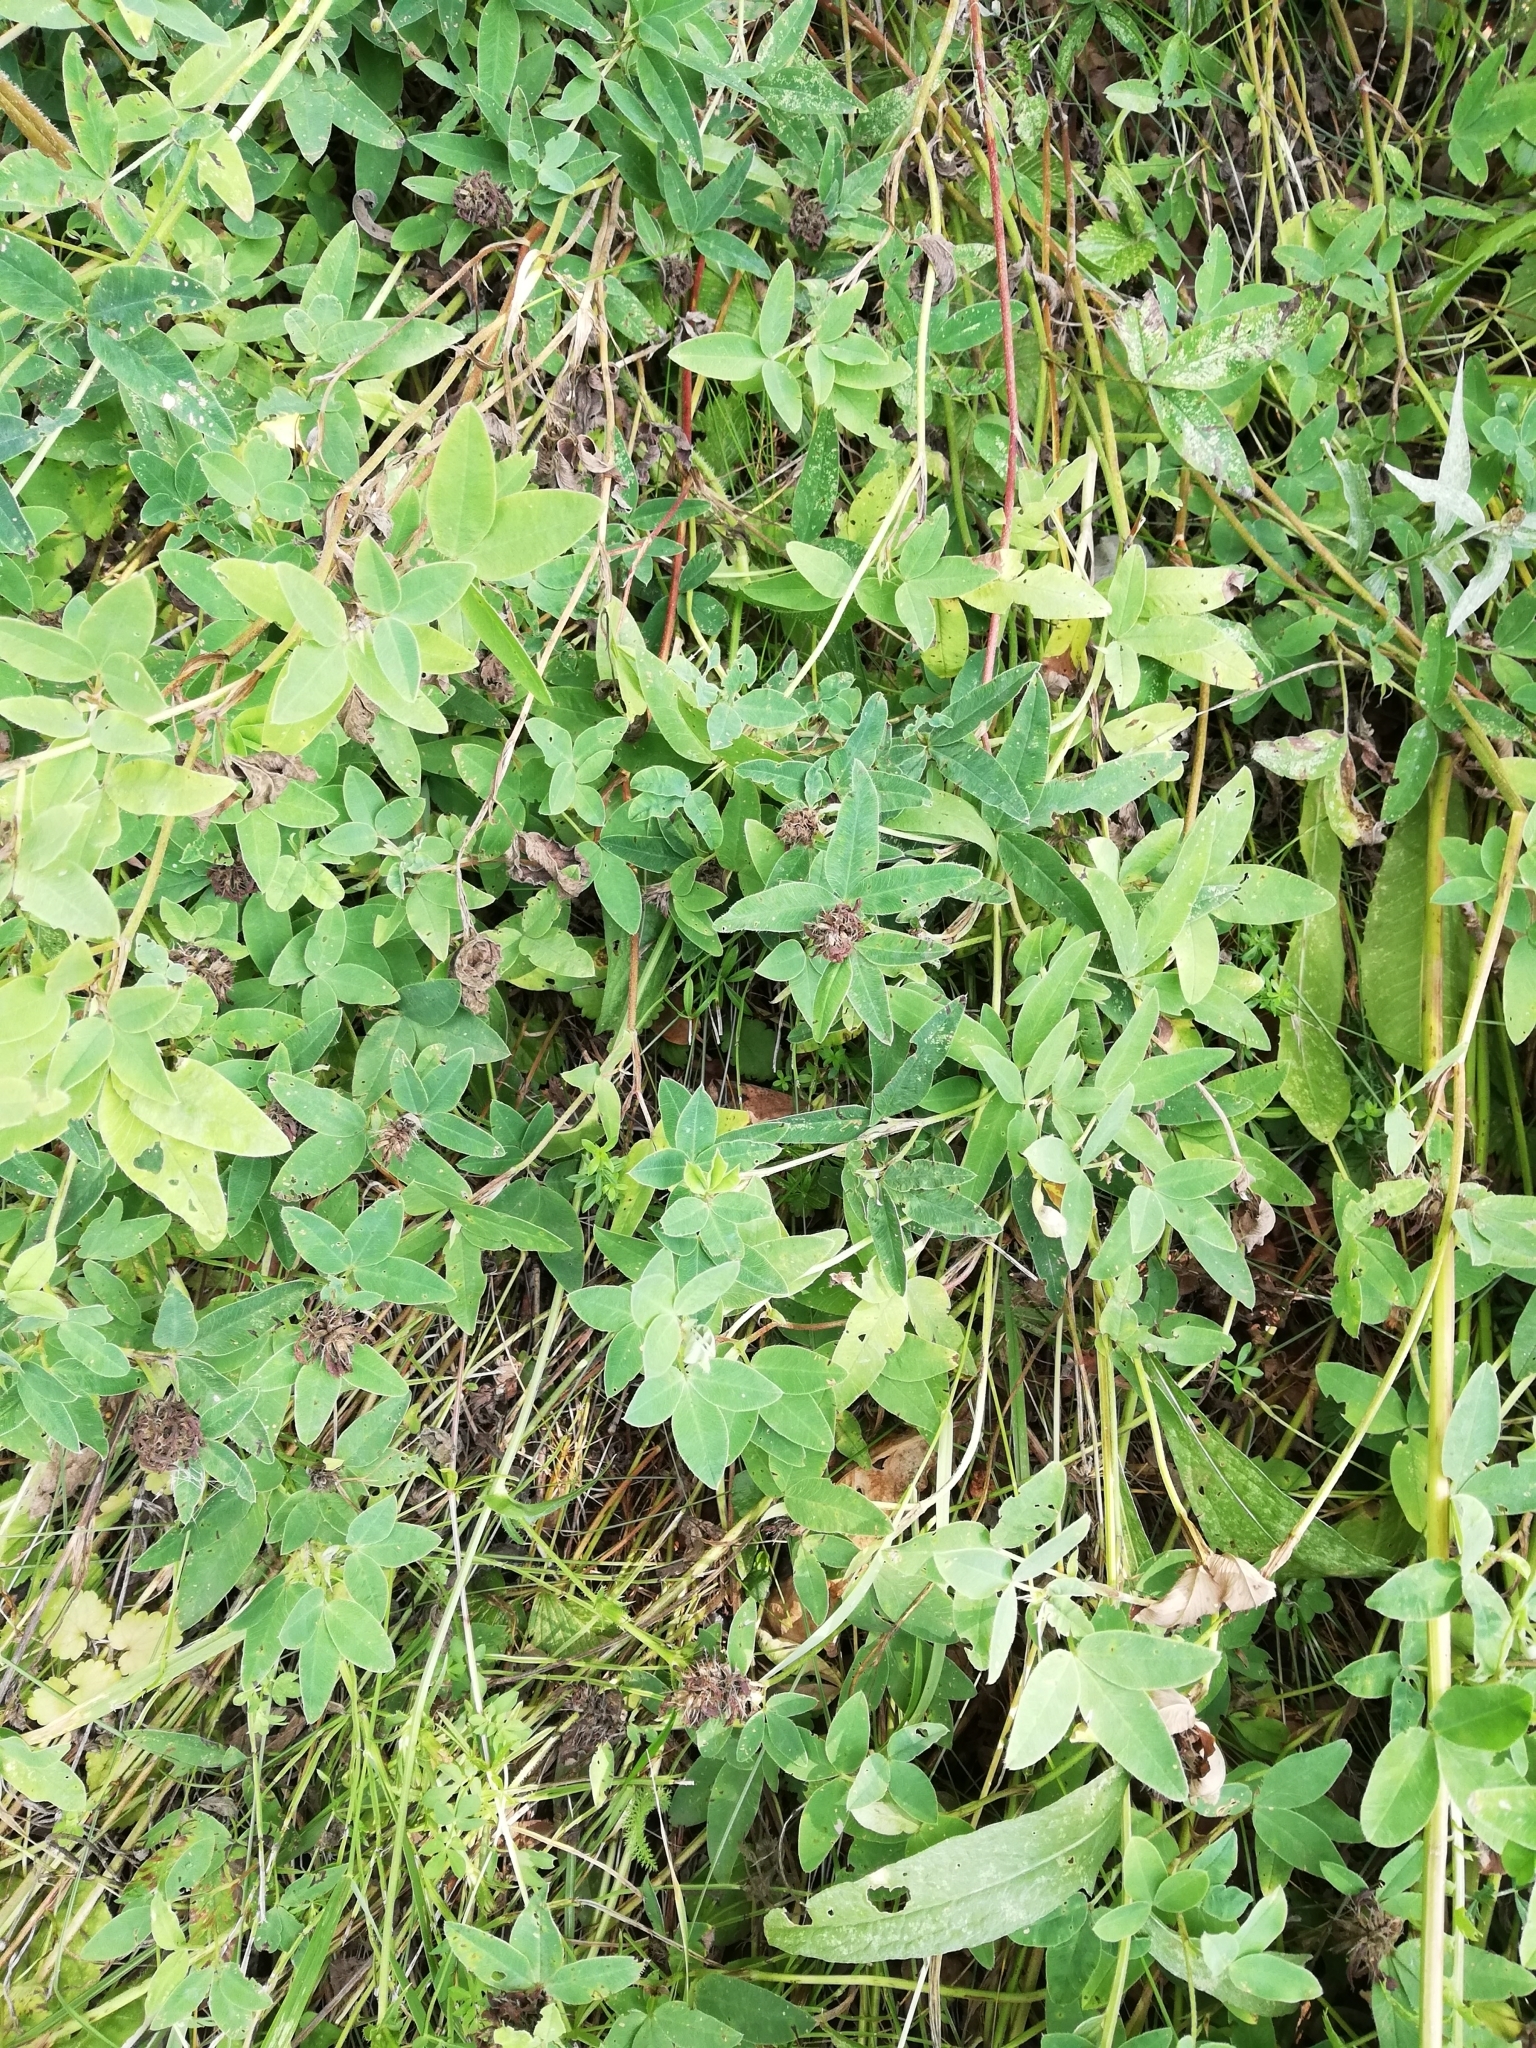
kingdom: Plantae
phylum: Tracheophyta
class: Magnoliopsida
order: Fabales
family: Fabaceae
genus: Trifolium
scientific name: Trifolium medium
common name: Zigzag clover
